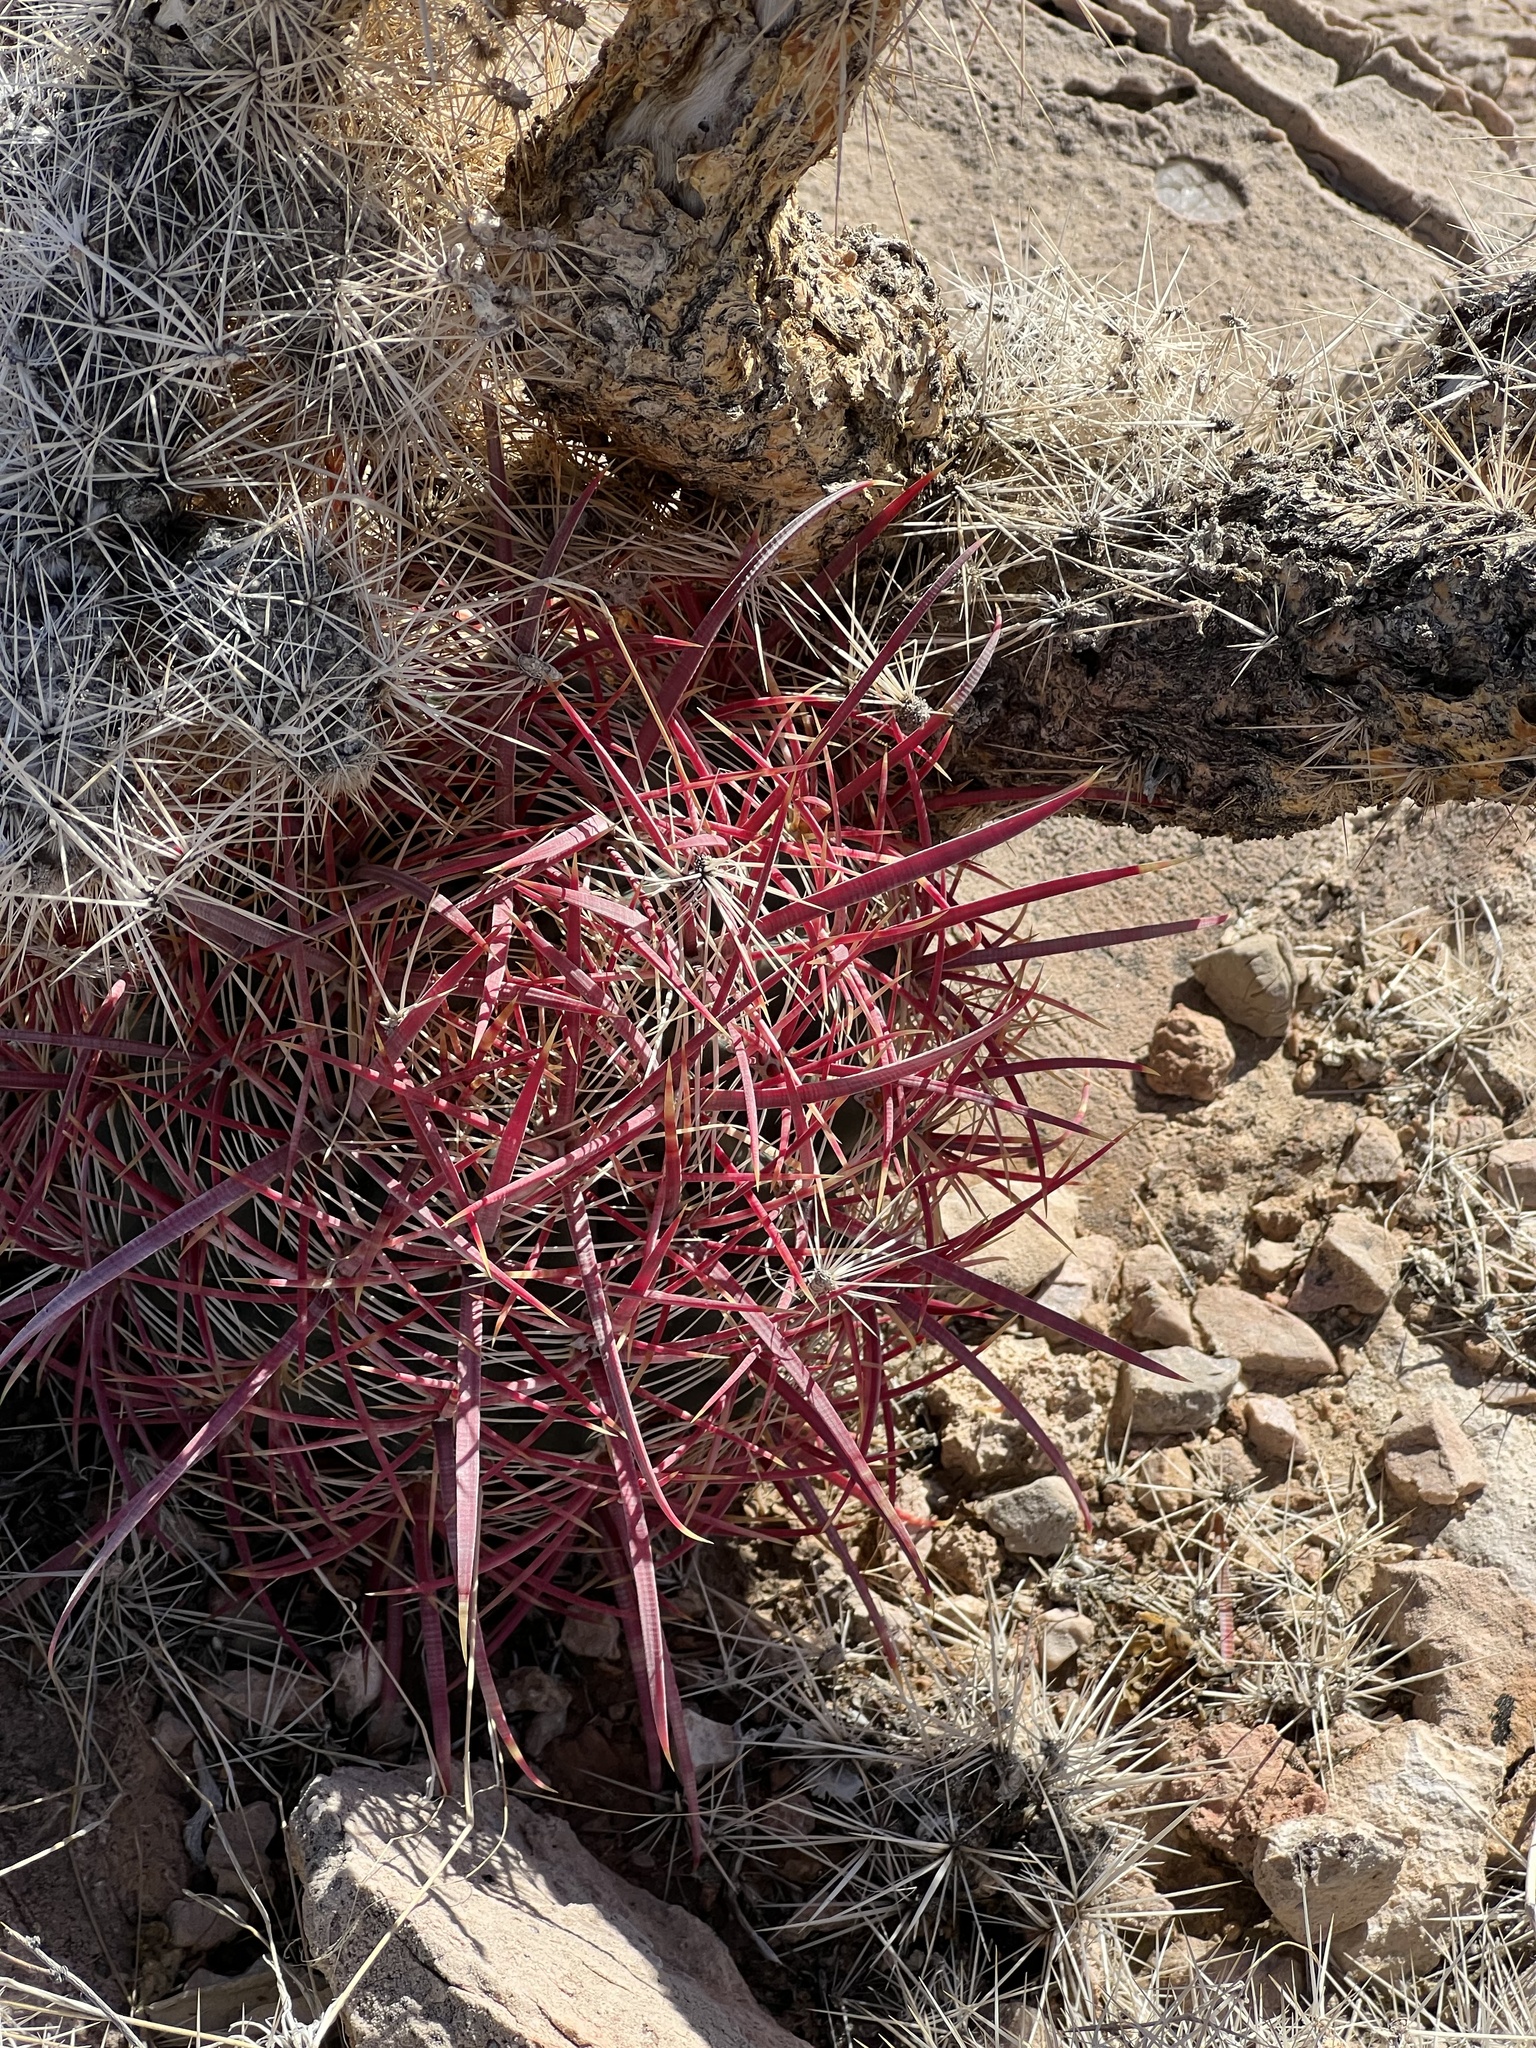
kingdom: Plantae
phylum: Tracheophyta
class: Magnoliopsida
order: Caryophyllales
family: Cactaceae
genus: Ferocactus
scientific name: Ferocactus cylindraceus
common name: California barrel cactus
